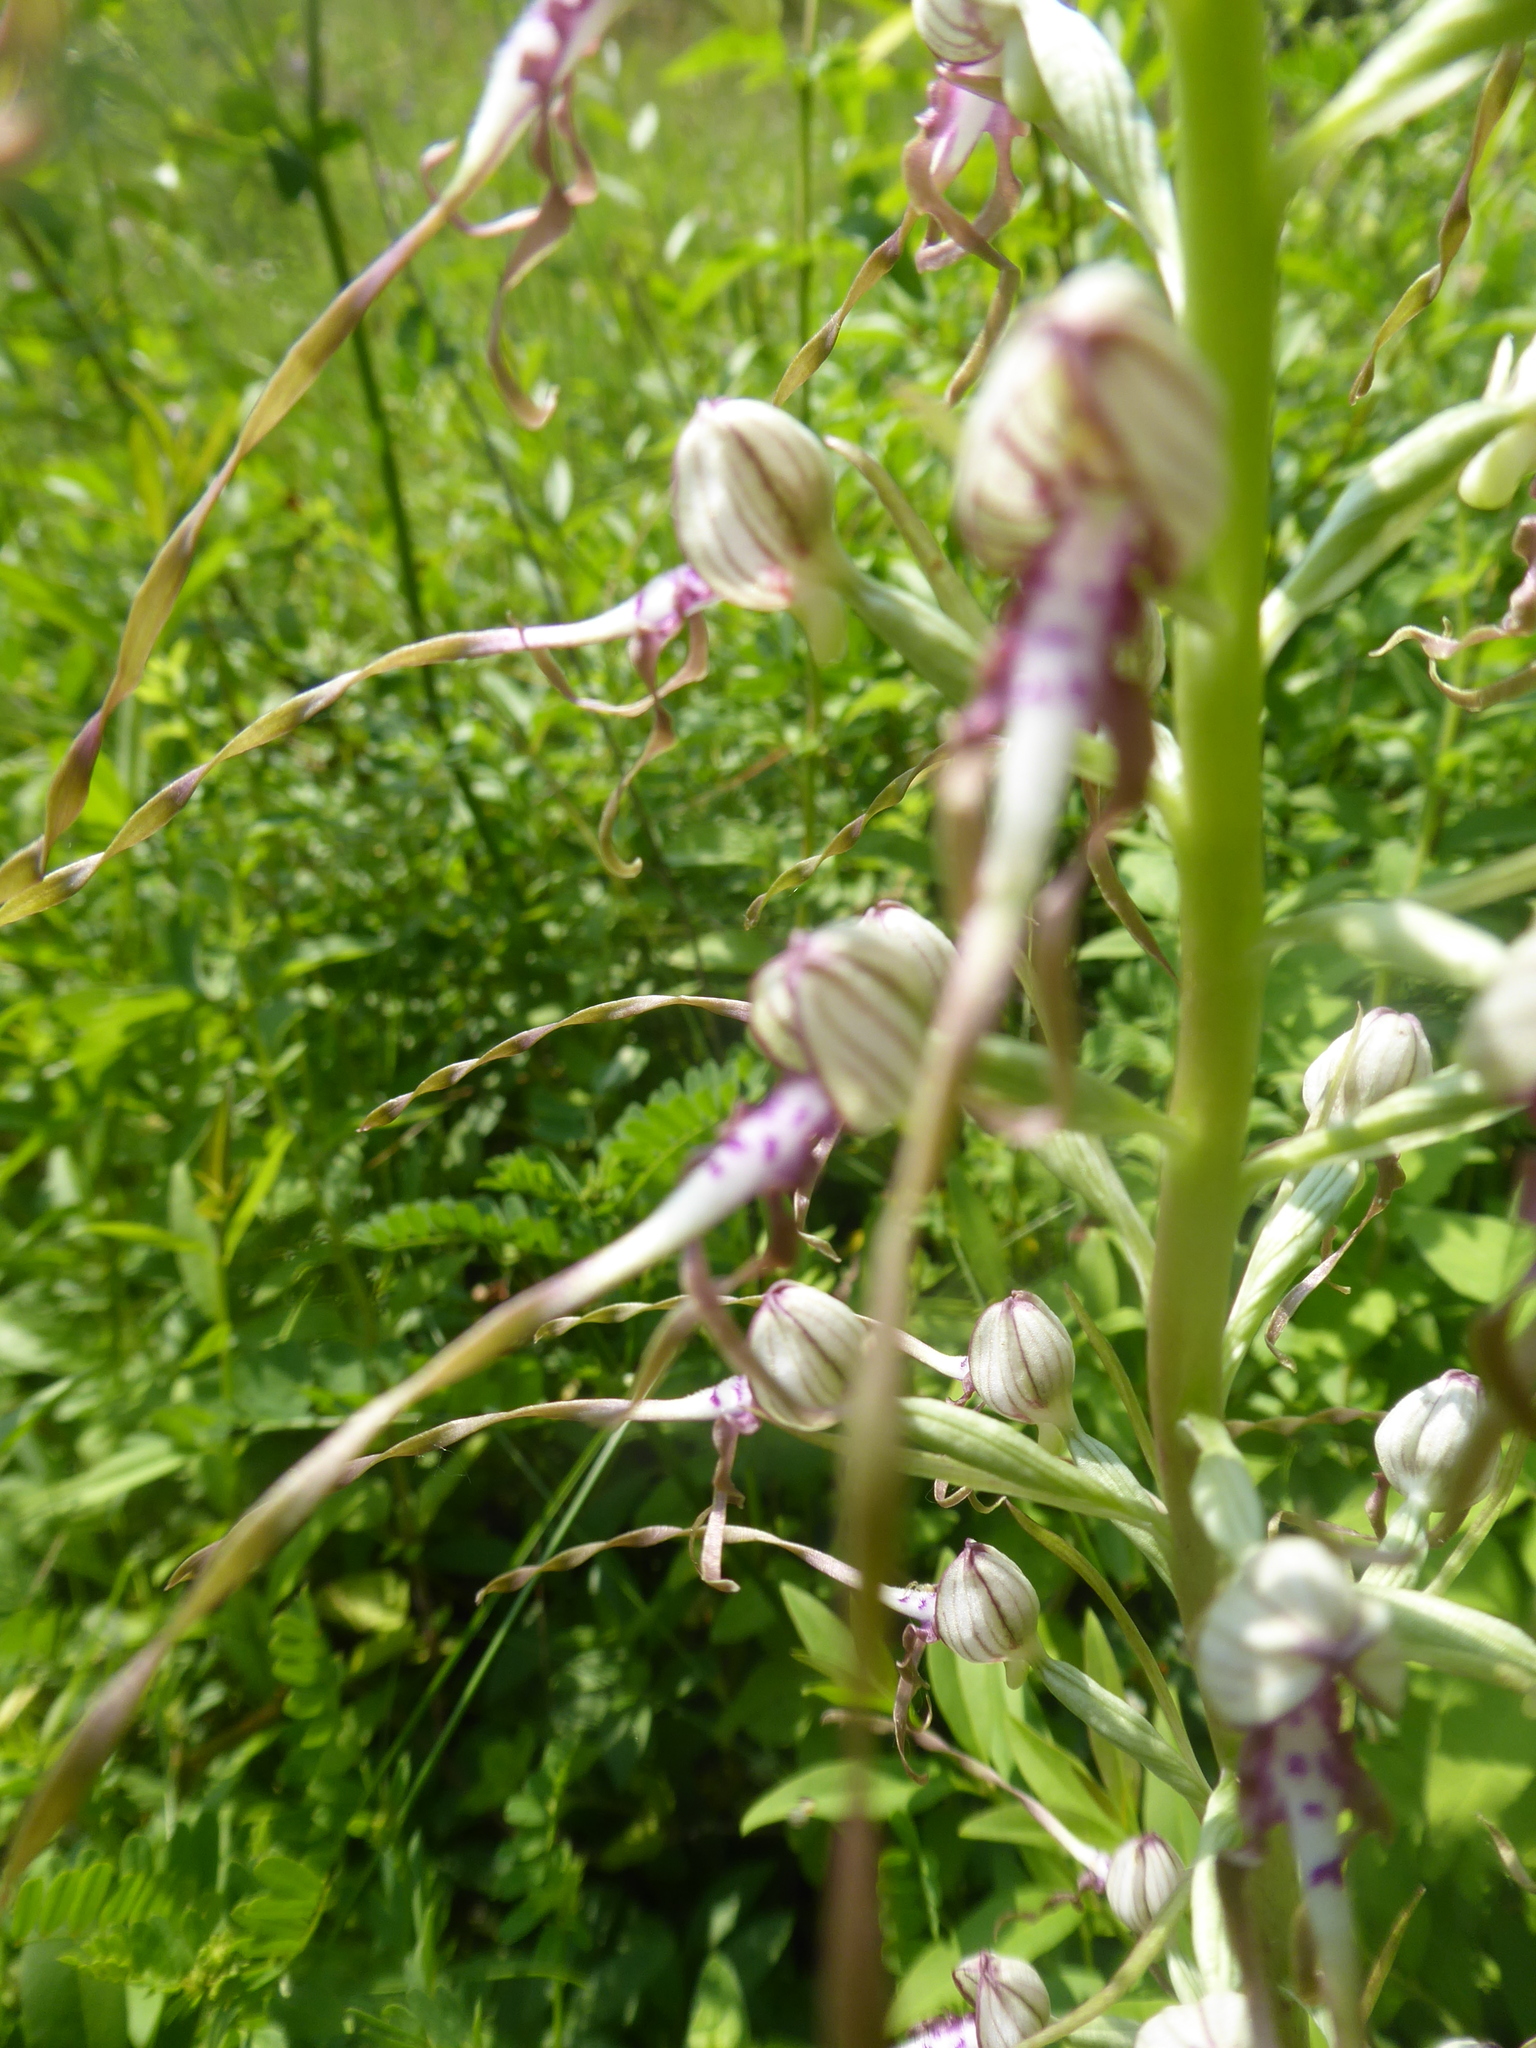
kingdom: Plantae
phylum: Tracheophyta
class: Liliopsida
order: Asparagales
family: Orchidaceae
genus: Himantoglossum
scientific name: Himantoglossum adriaticum
